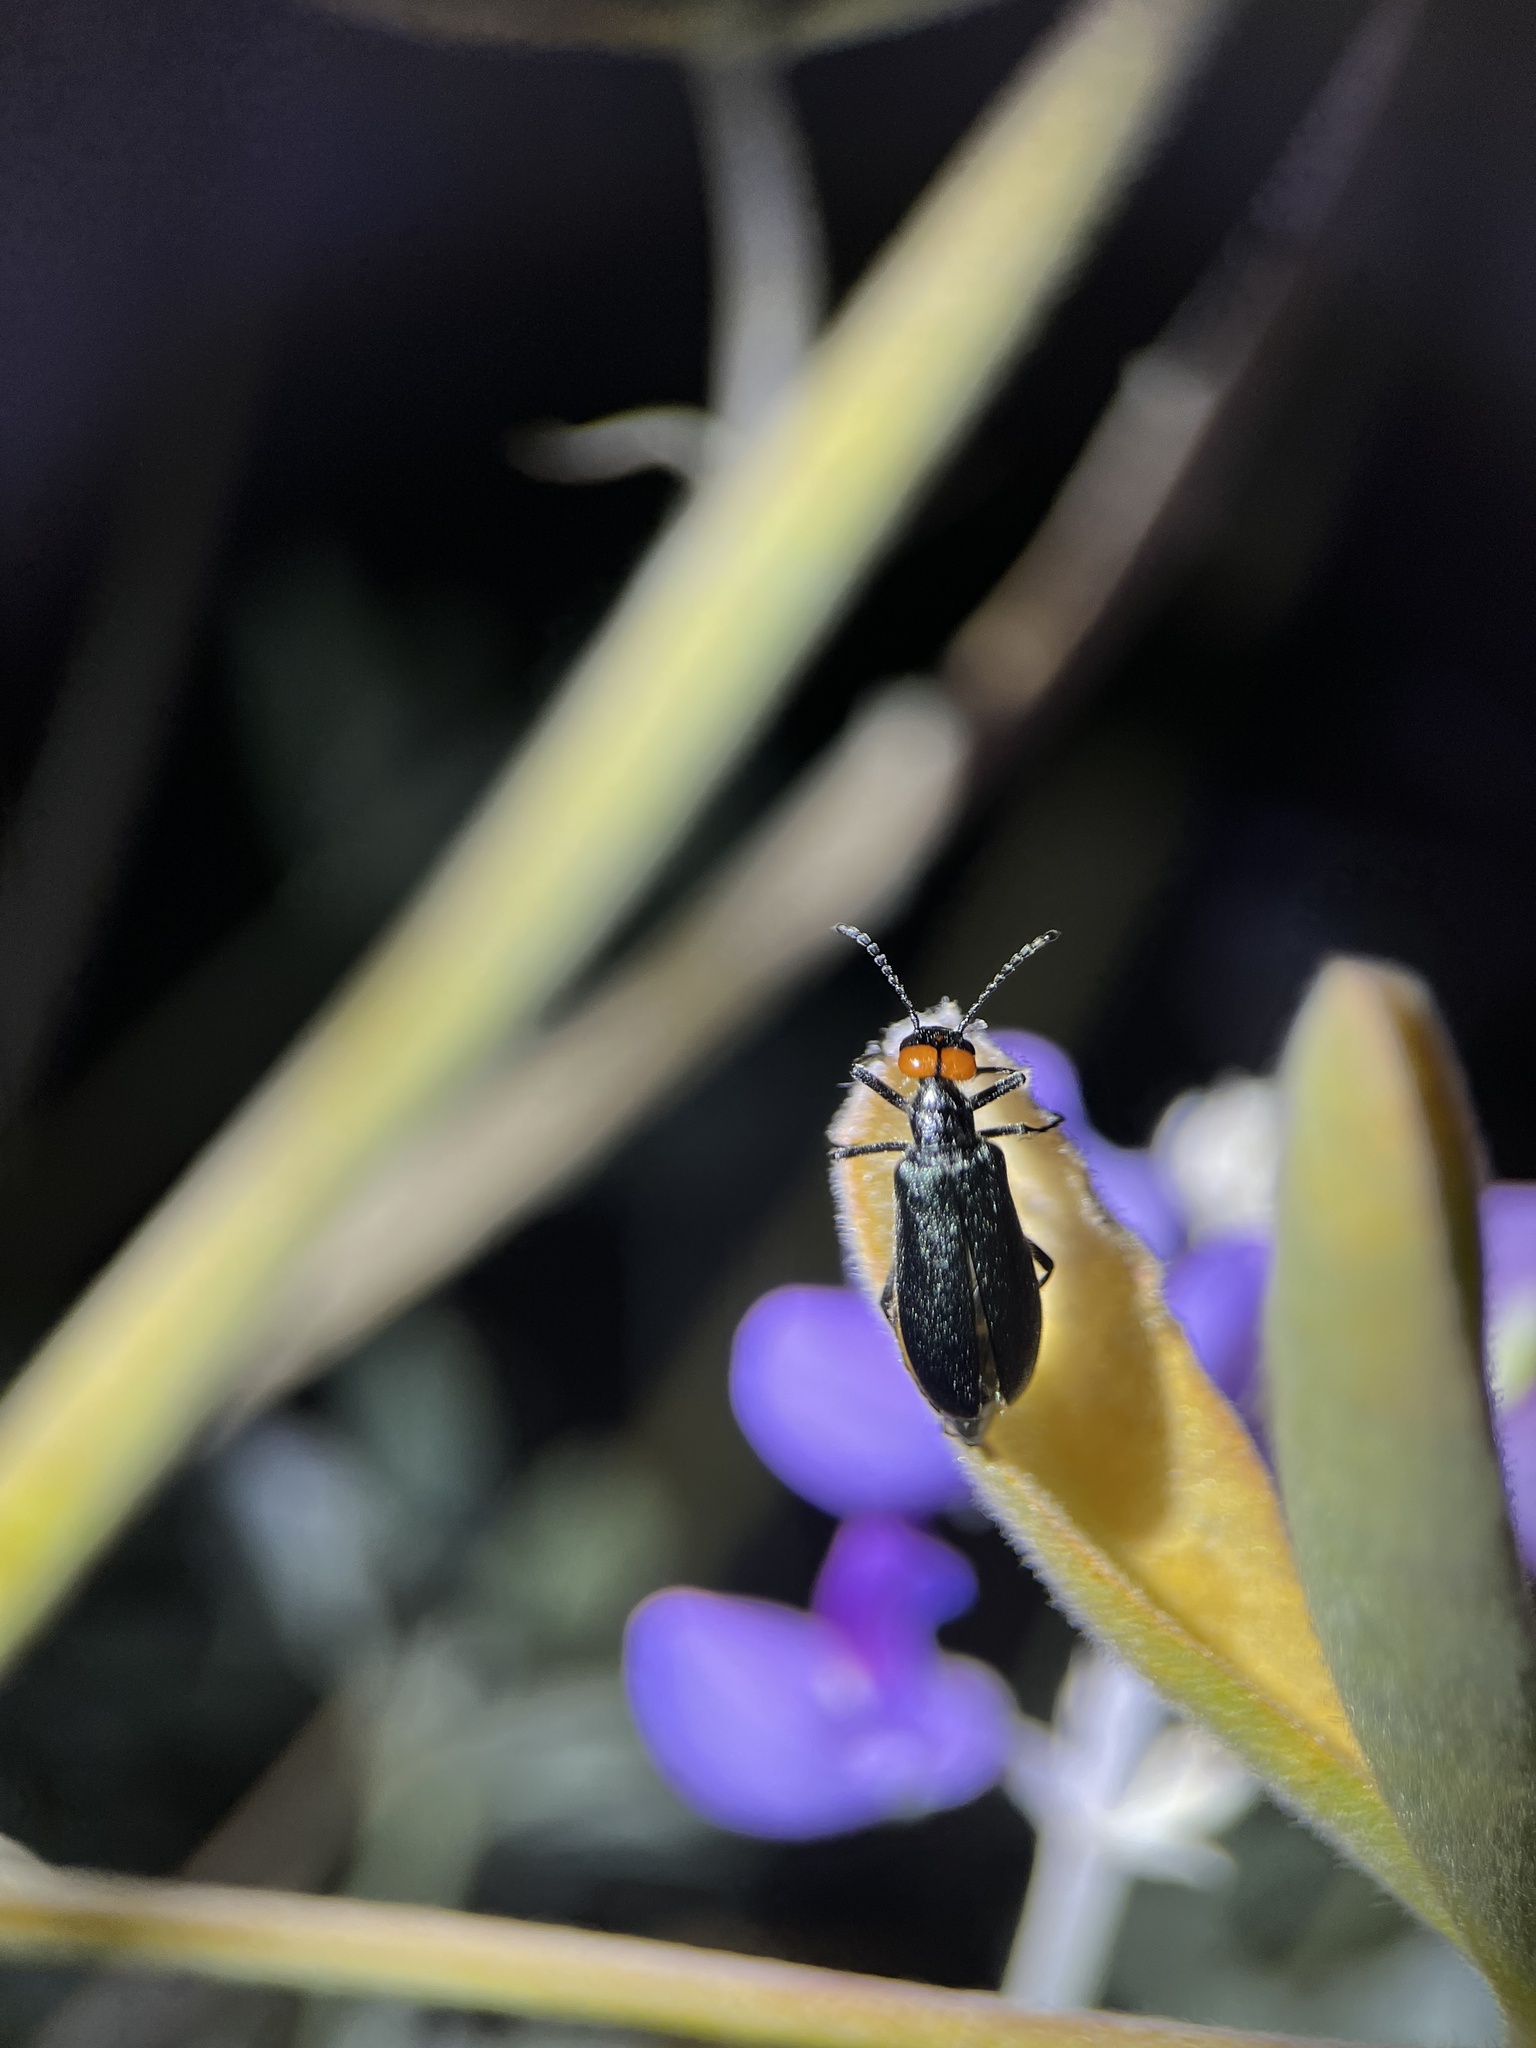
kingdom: Animalia
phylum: Arthropoda
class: Insecta
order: Coleoptera
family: Meloidae
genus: Lytta
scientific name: Lytta auriculata
